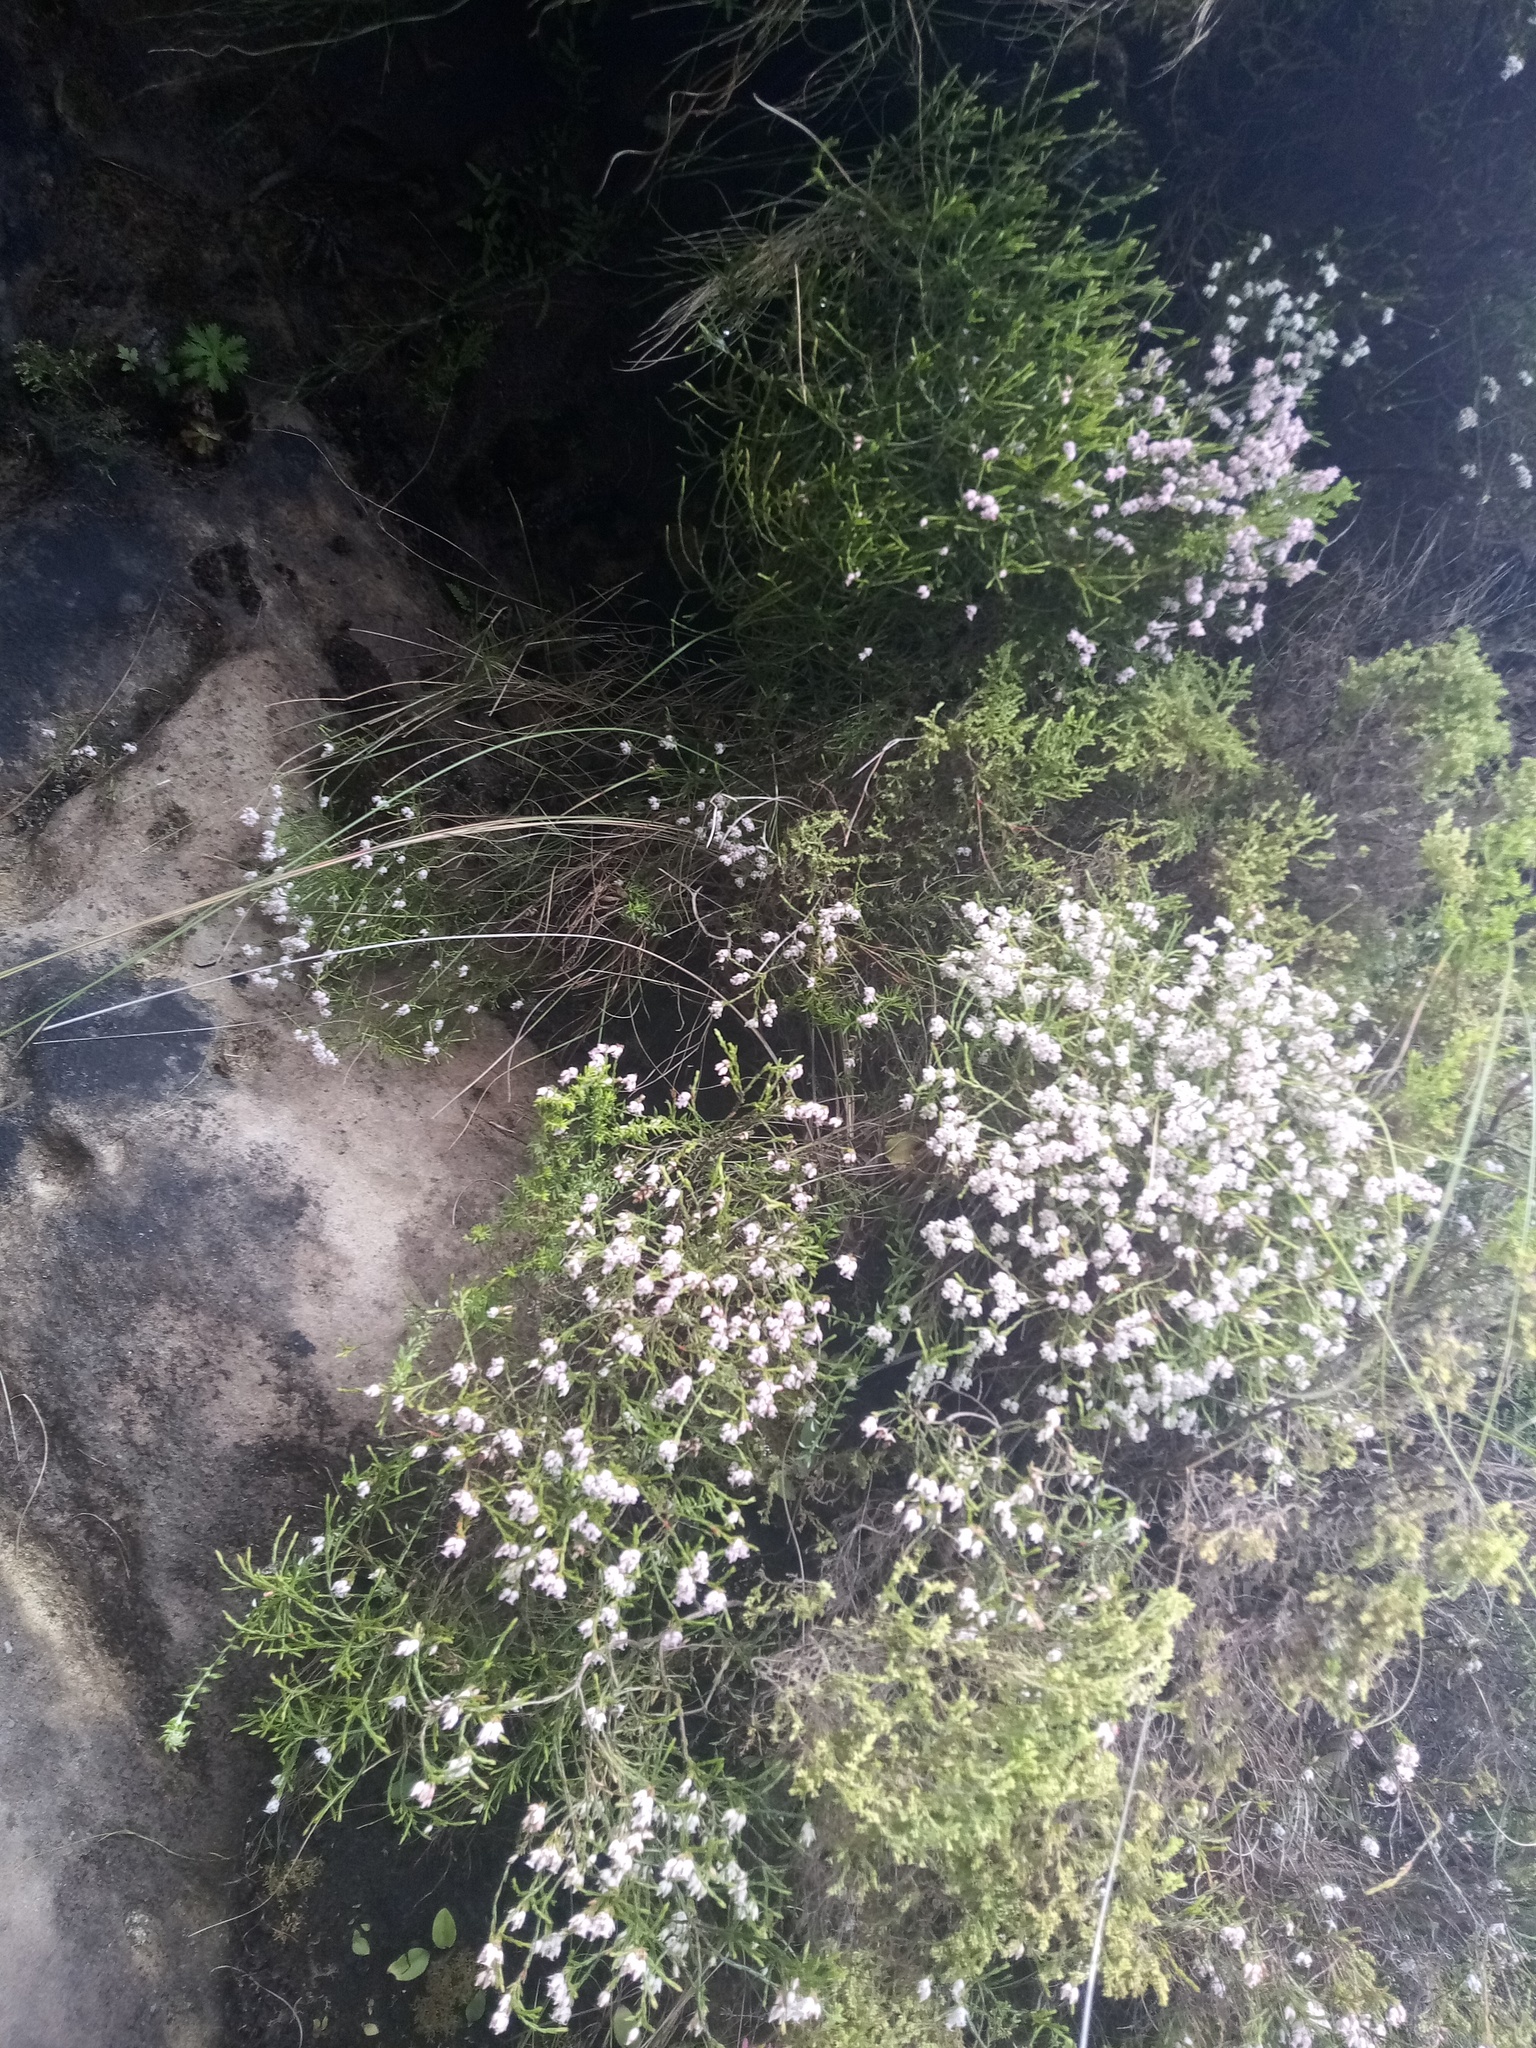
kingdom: Plantae
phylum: Tracheophyta
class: Magnoliopsida
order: Ericales
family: Ericaceae
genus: Erica
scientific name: Erica tenuifolia
